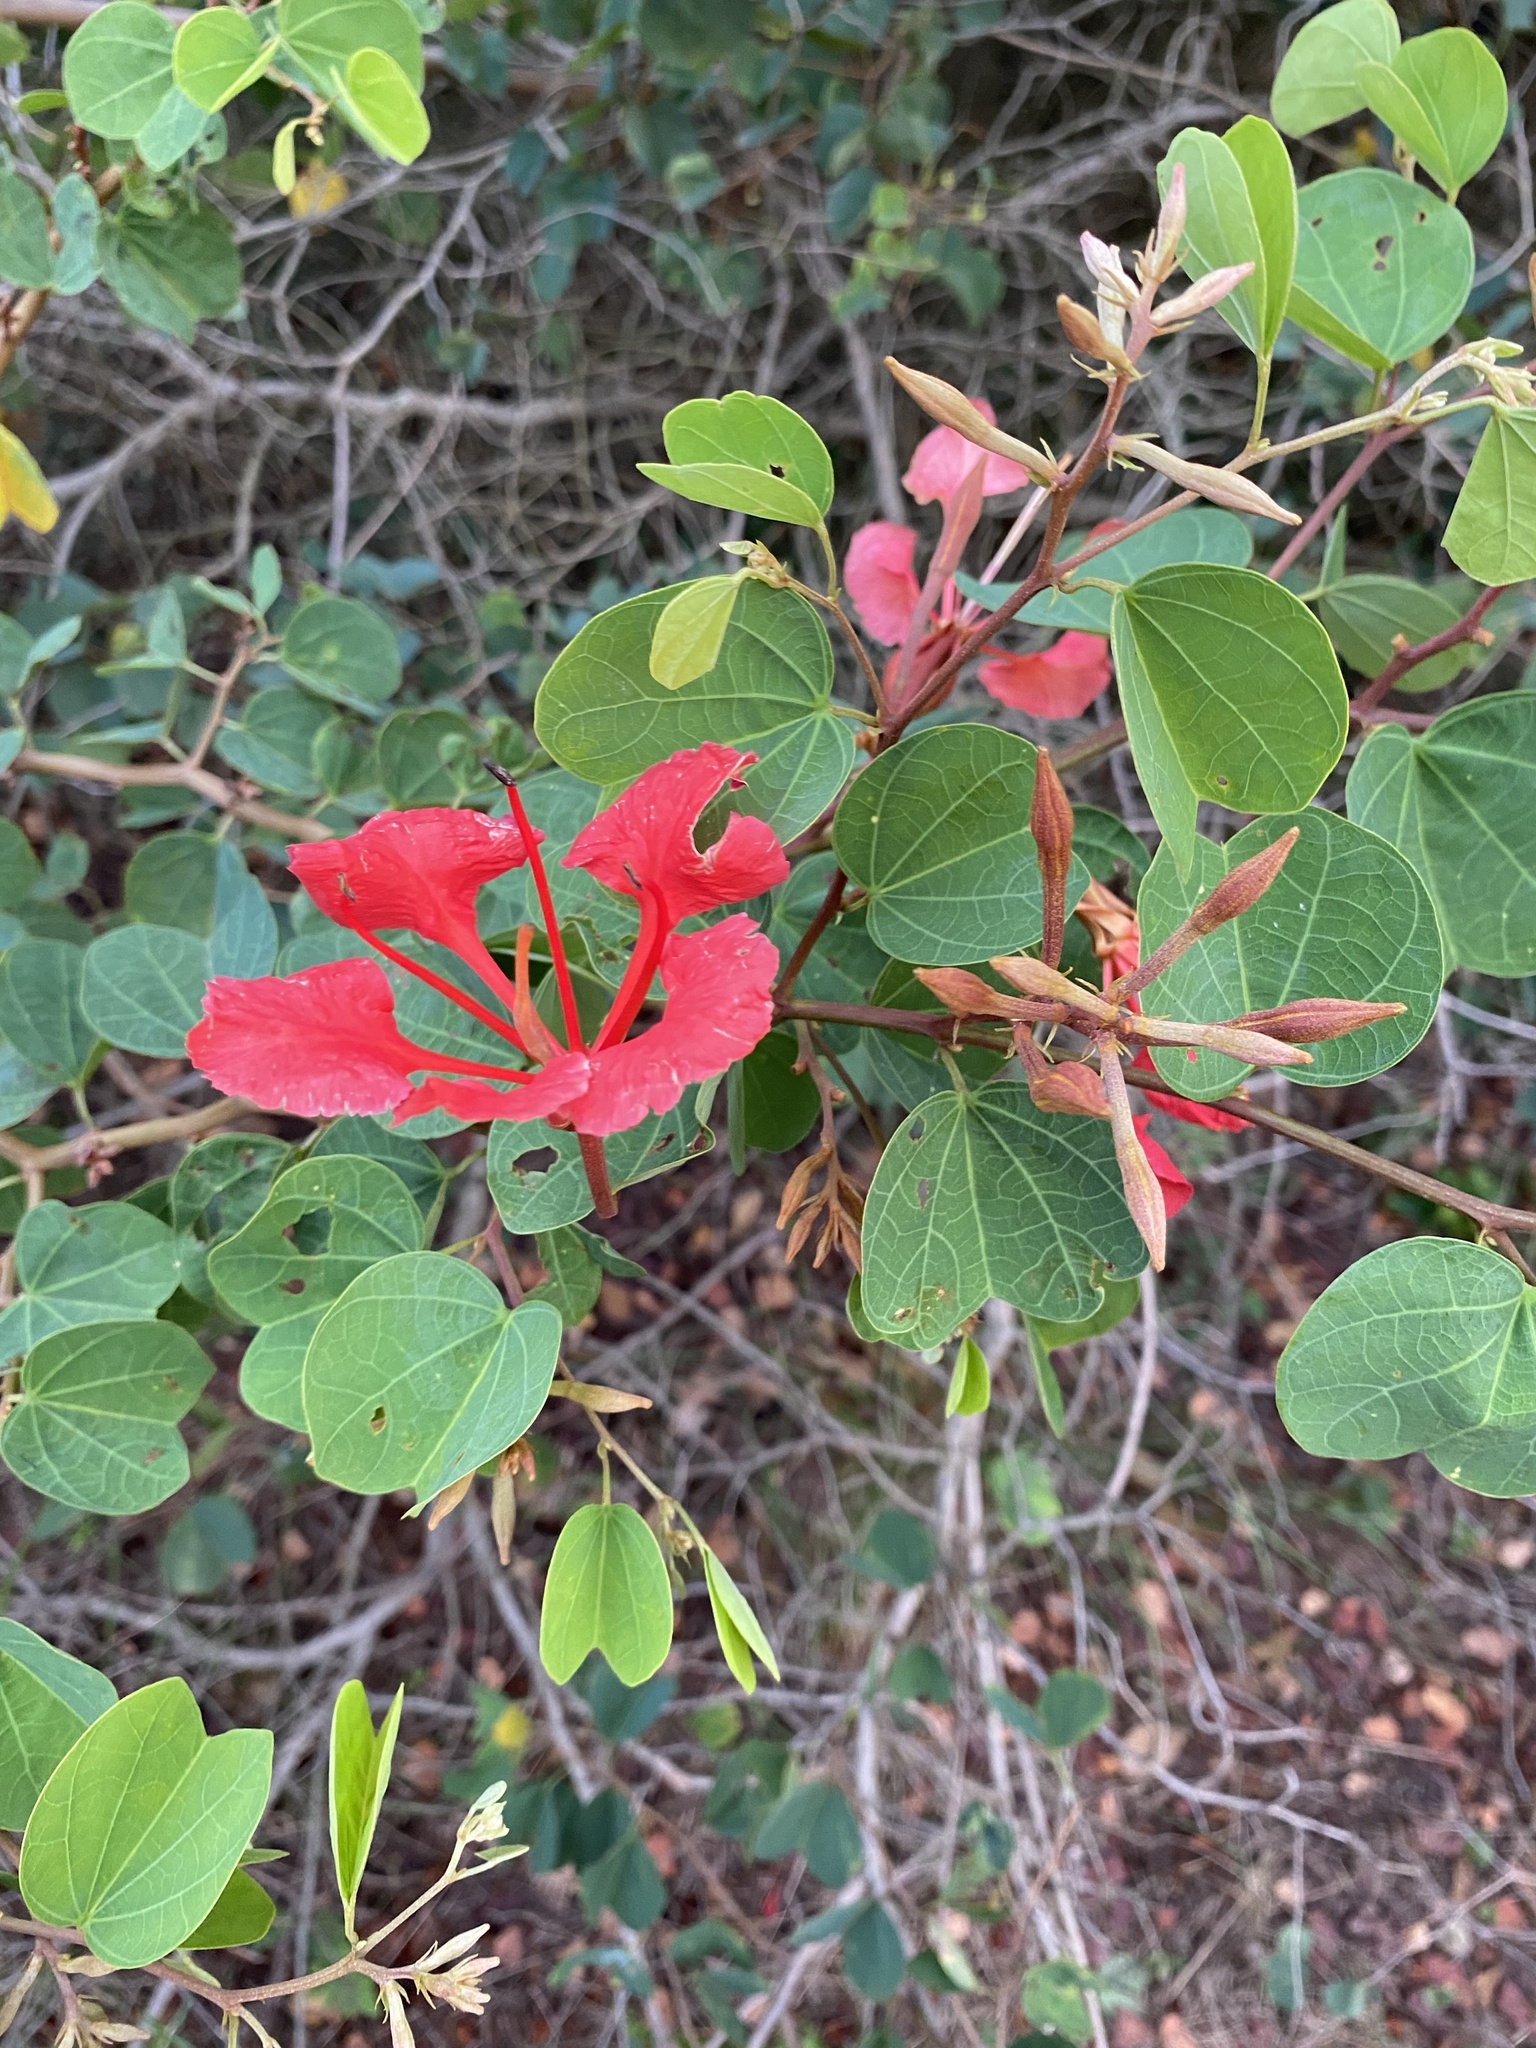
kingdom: Plantae
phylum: Tracheophyta
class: Magnoliopsida
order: Fabales
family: Fabaceae
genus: Bauhinia
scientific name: Bauhinia galpinii
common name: African plume
